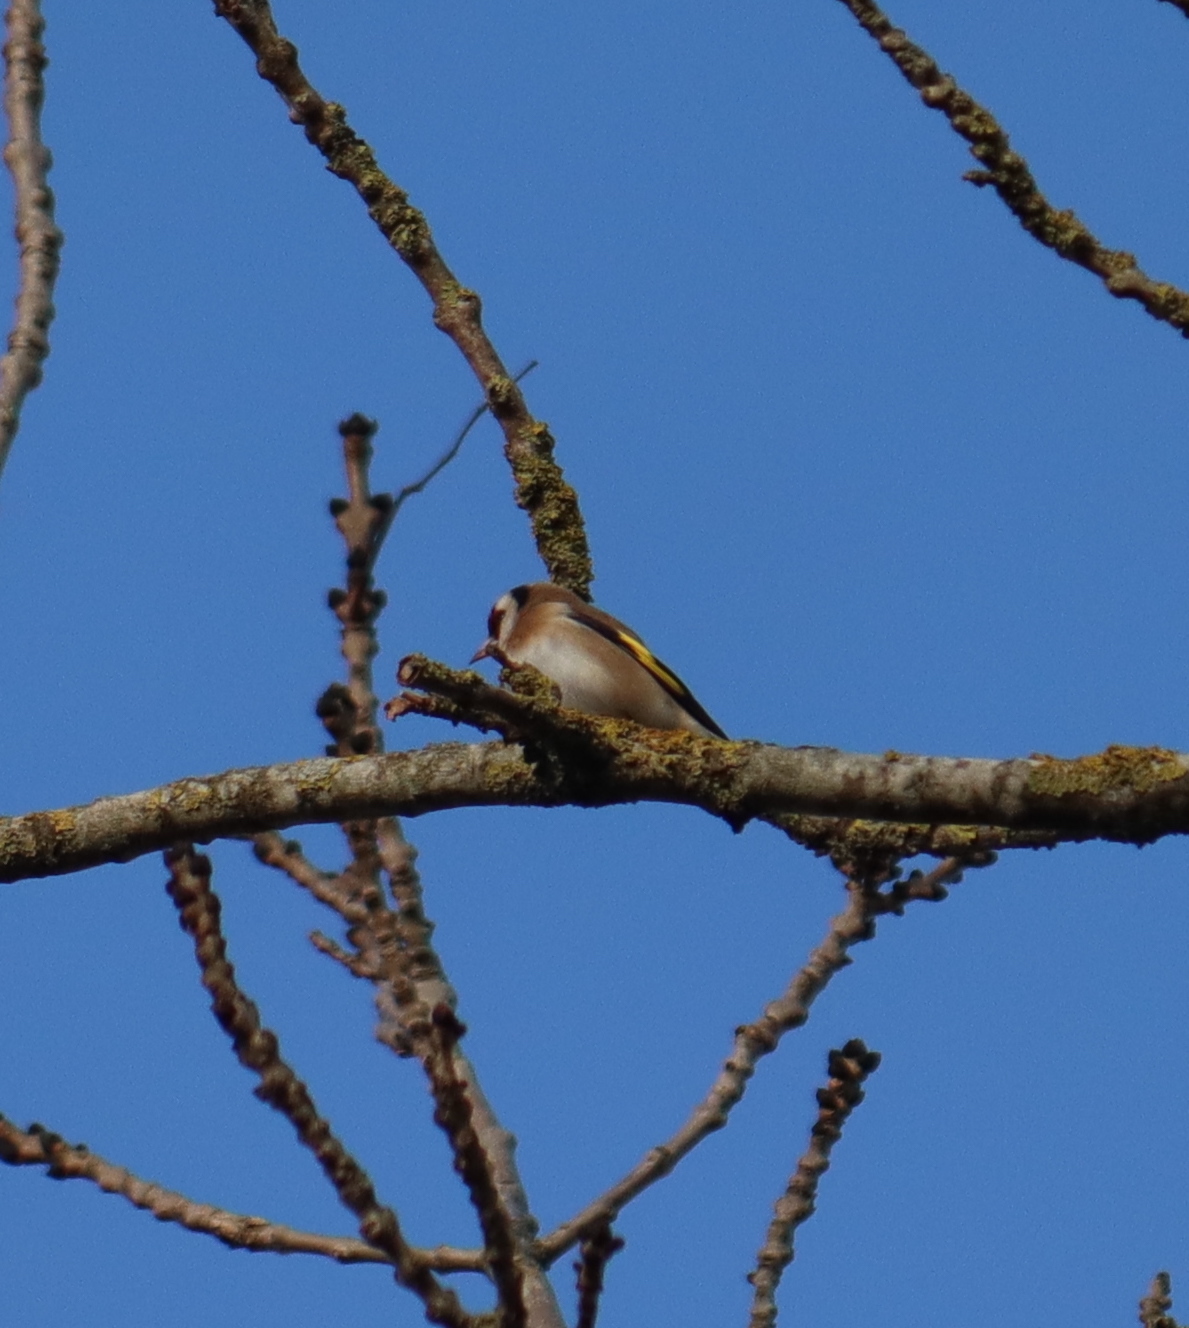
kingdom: Animalia
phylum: Chordata
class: Aves
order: Passeriformes
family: Fringillidae
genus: Carduelis
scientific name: Carduelis carduelis
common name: European goldfinch
